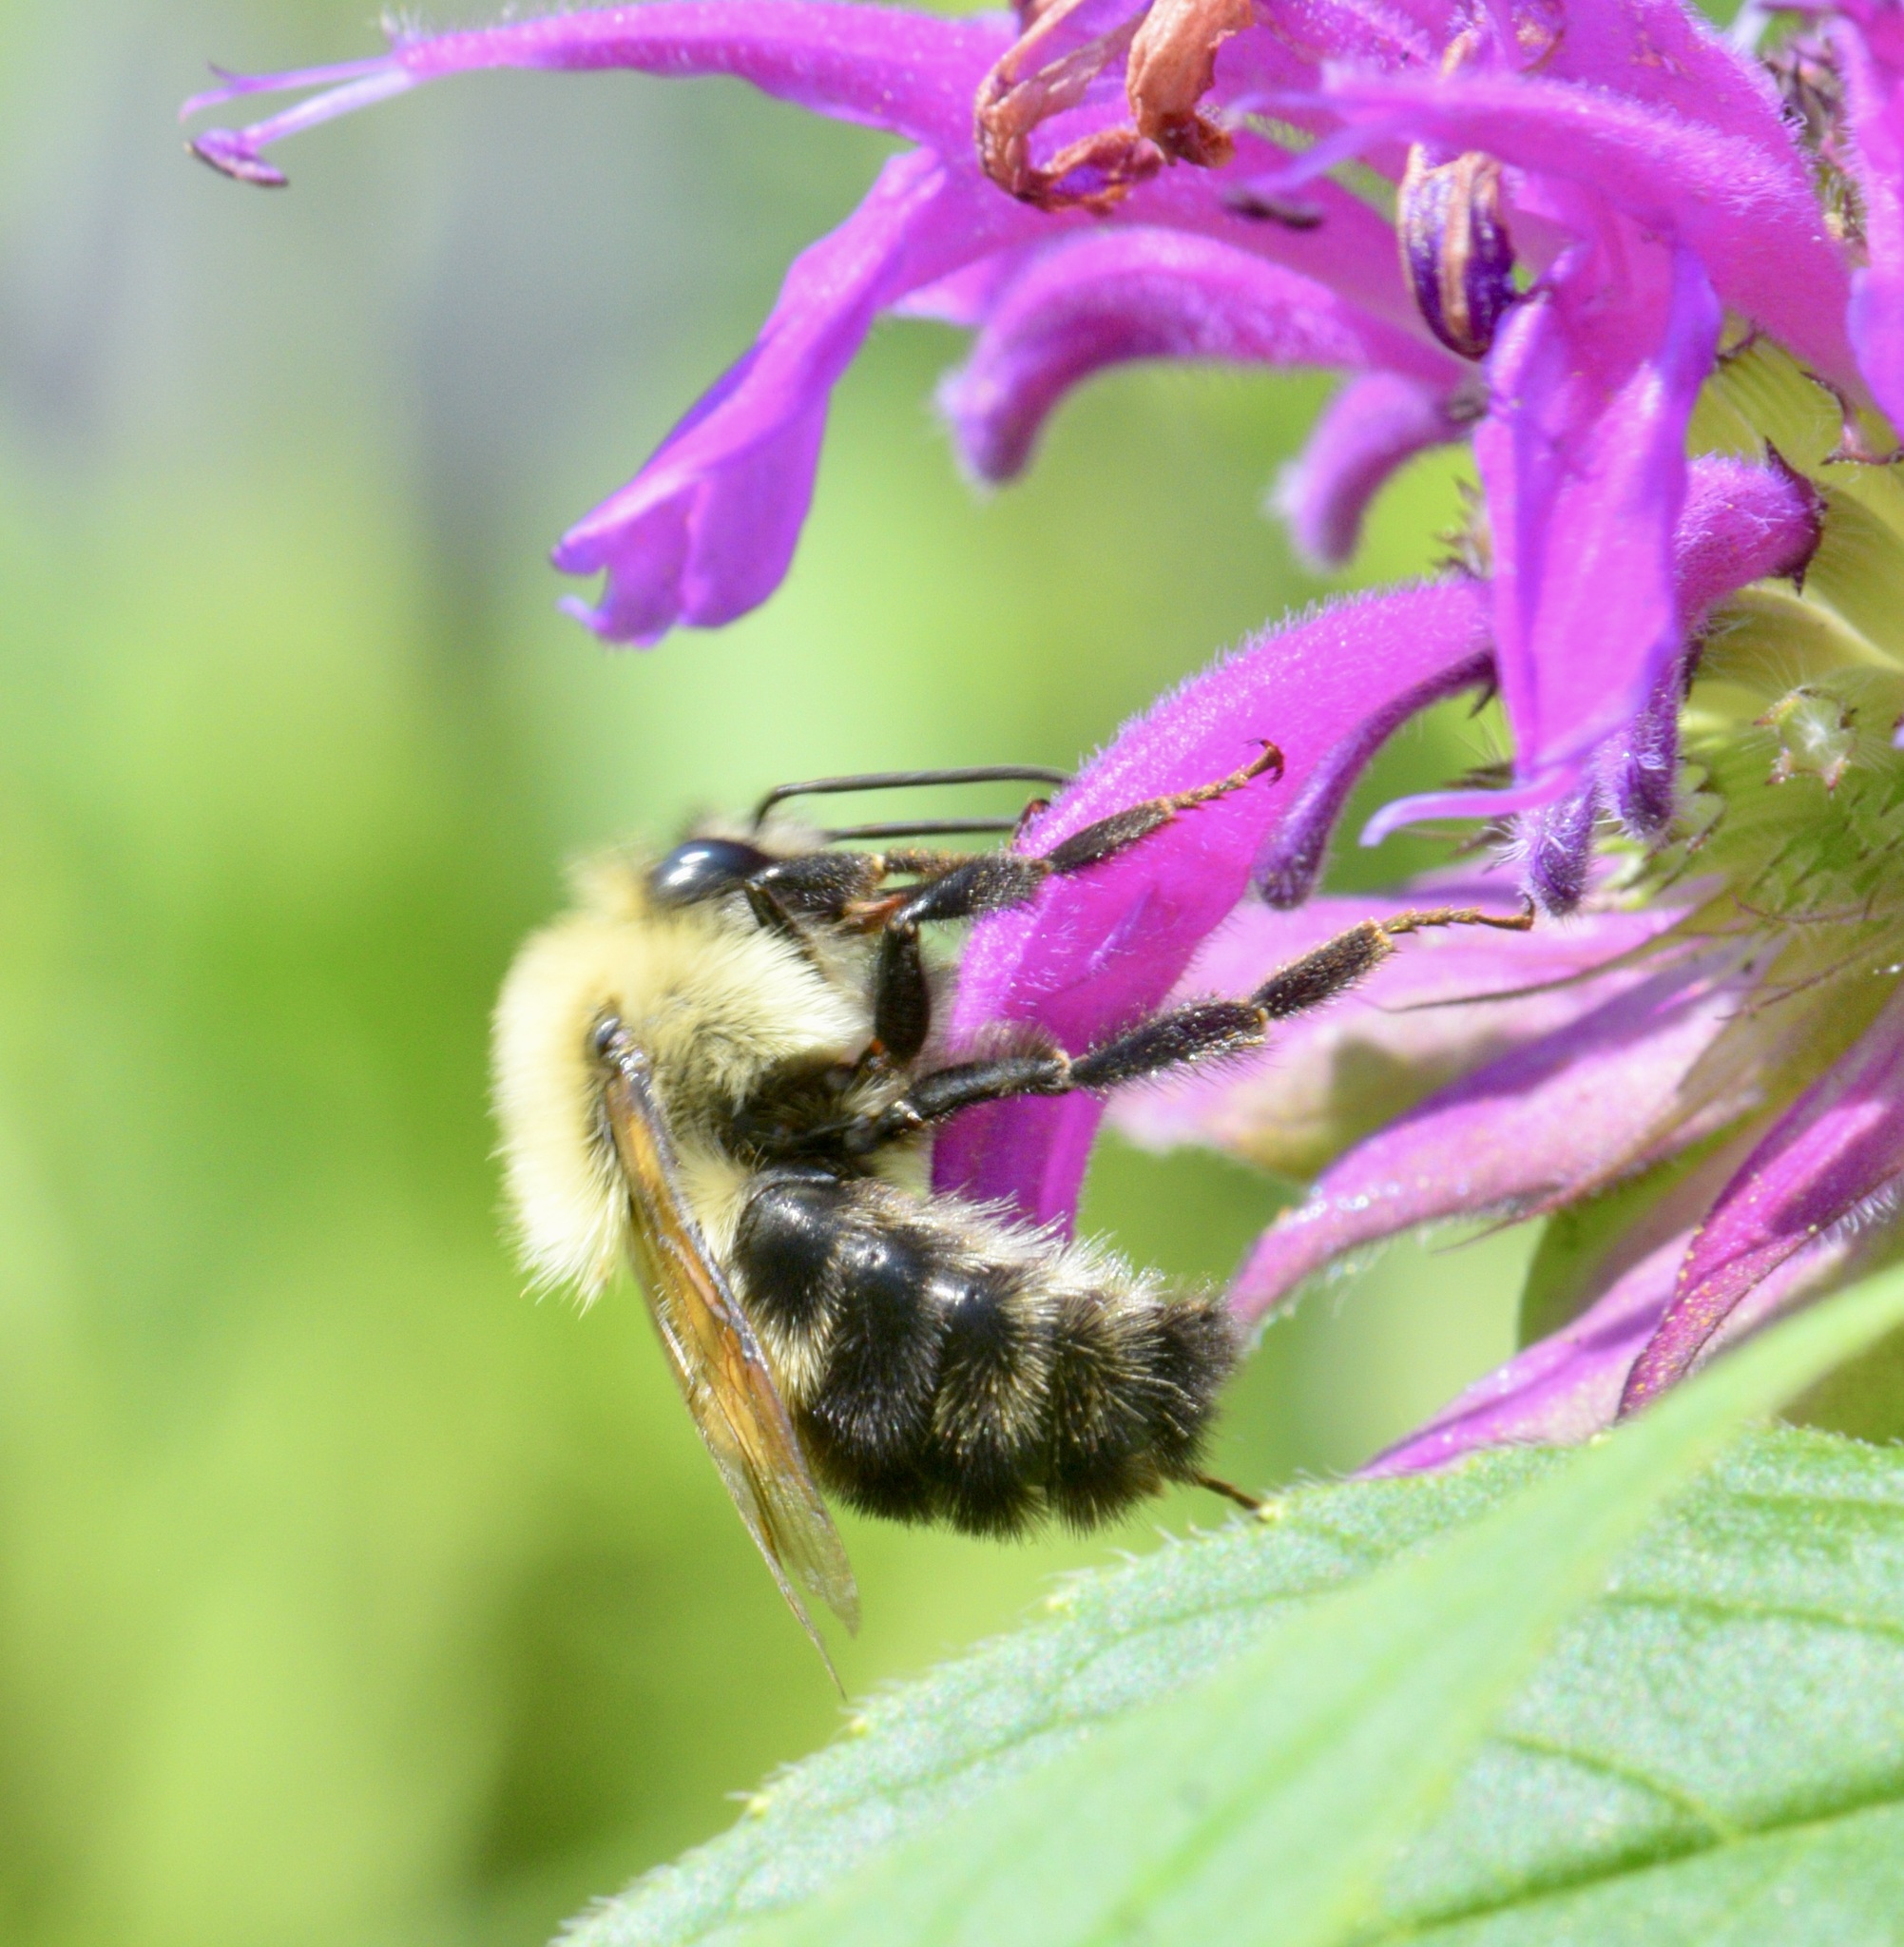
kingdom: Animalia
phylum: Arthropoda
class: Insecta
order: Hymenoptera
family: Apidae
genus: Bombus
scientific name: Bombus bimaculatus
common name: Two-spotted bumble bee
